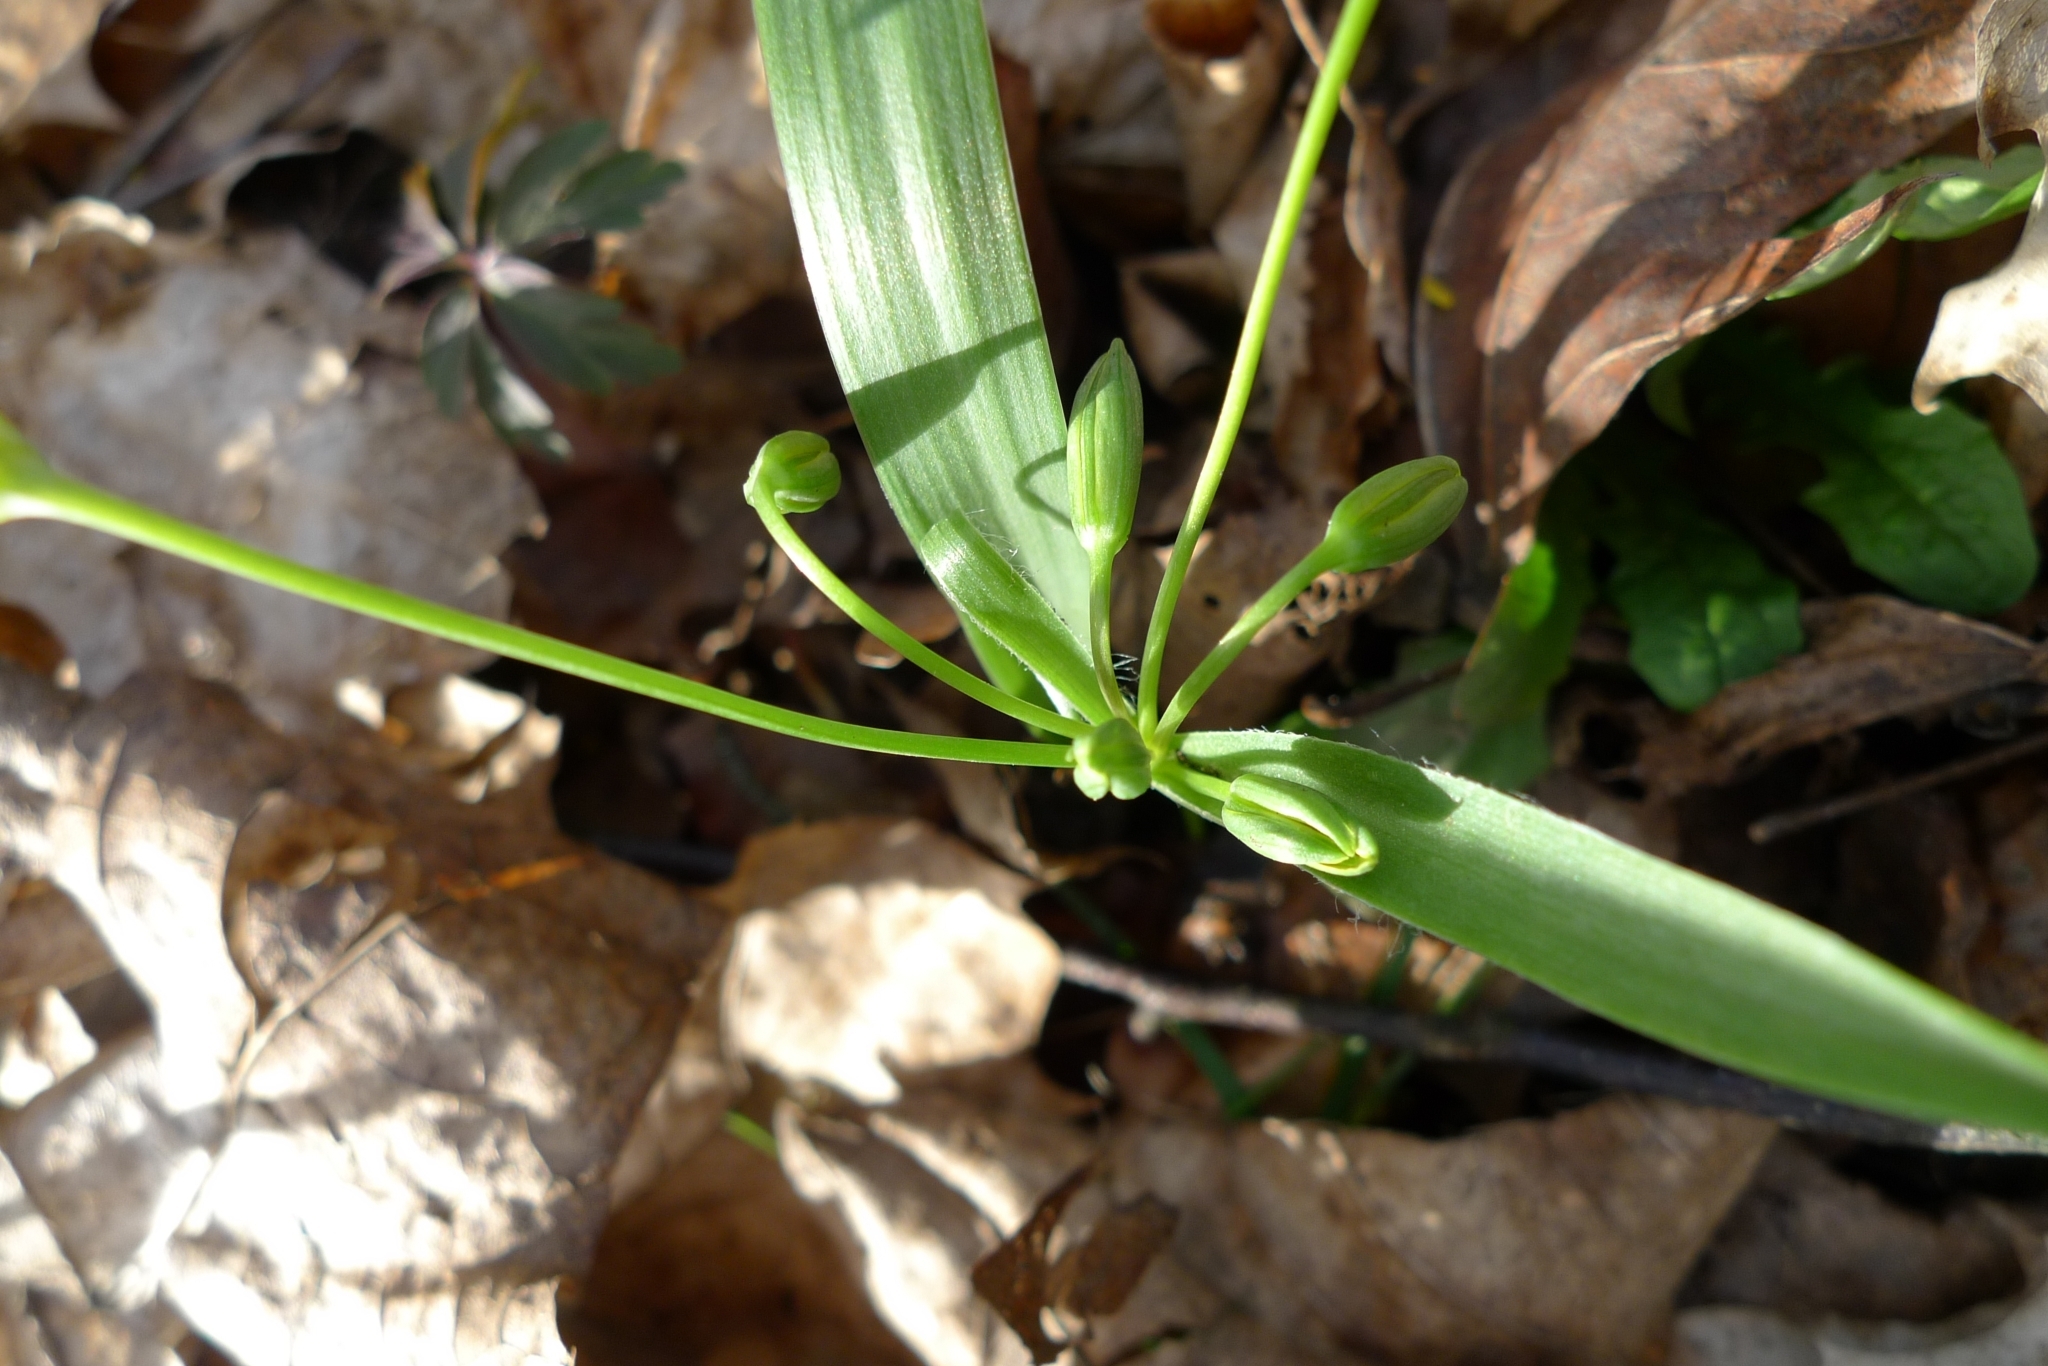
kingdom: Plantae
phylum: Tracheophyta
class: Liliopsida
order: Liliales
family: Liliaceae
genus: Gagea
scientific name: Gagea lutea
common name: Yellow star-of-bethlehem
